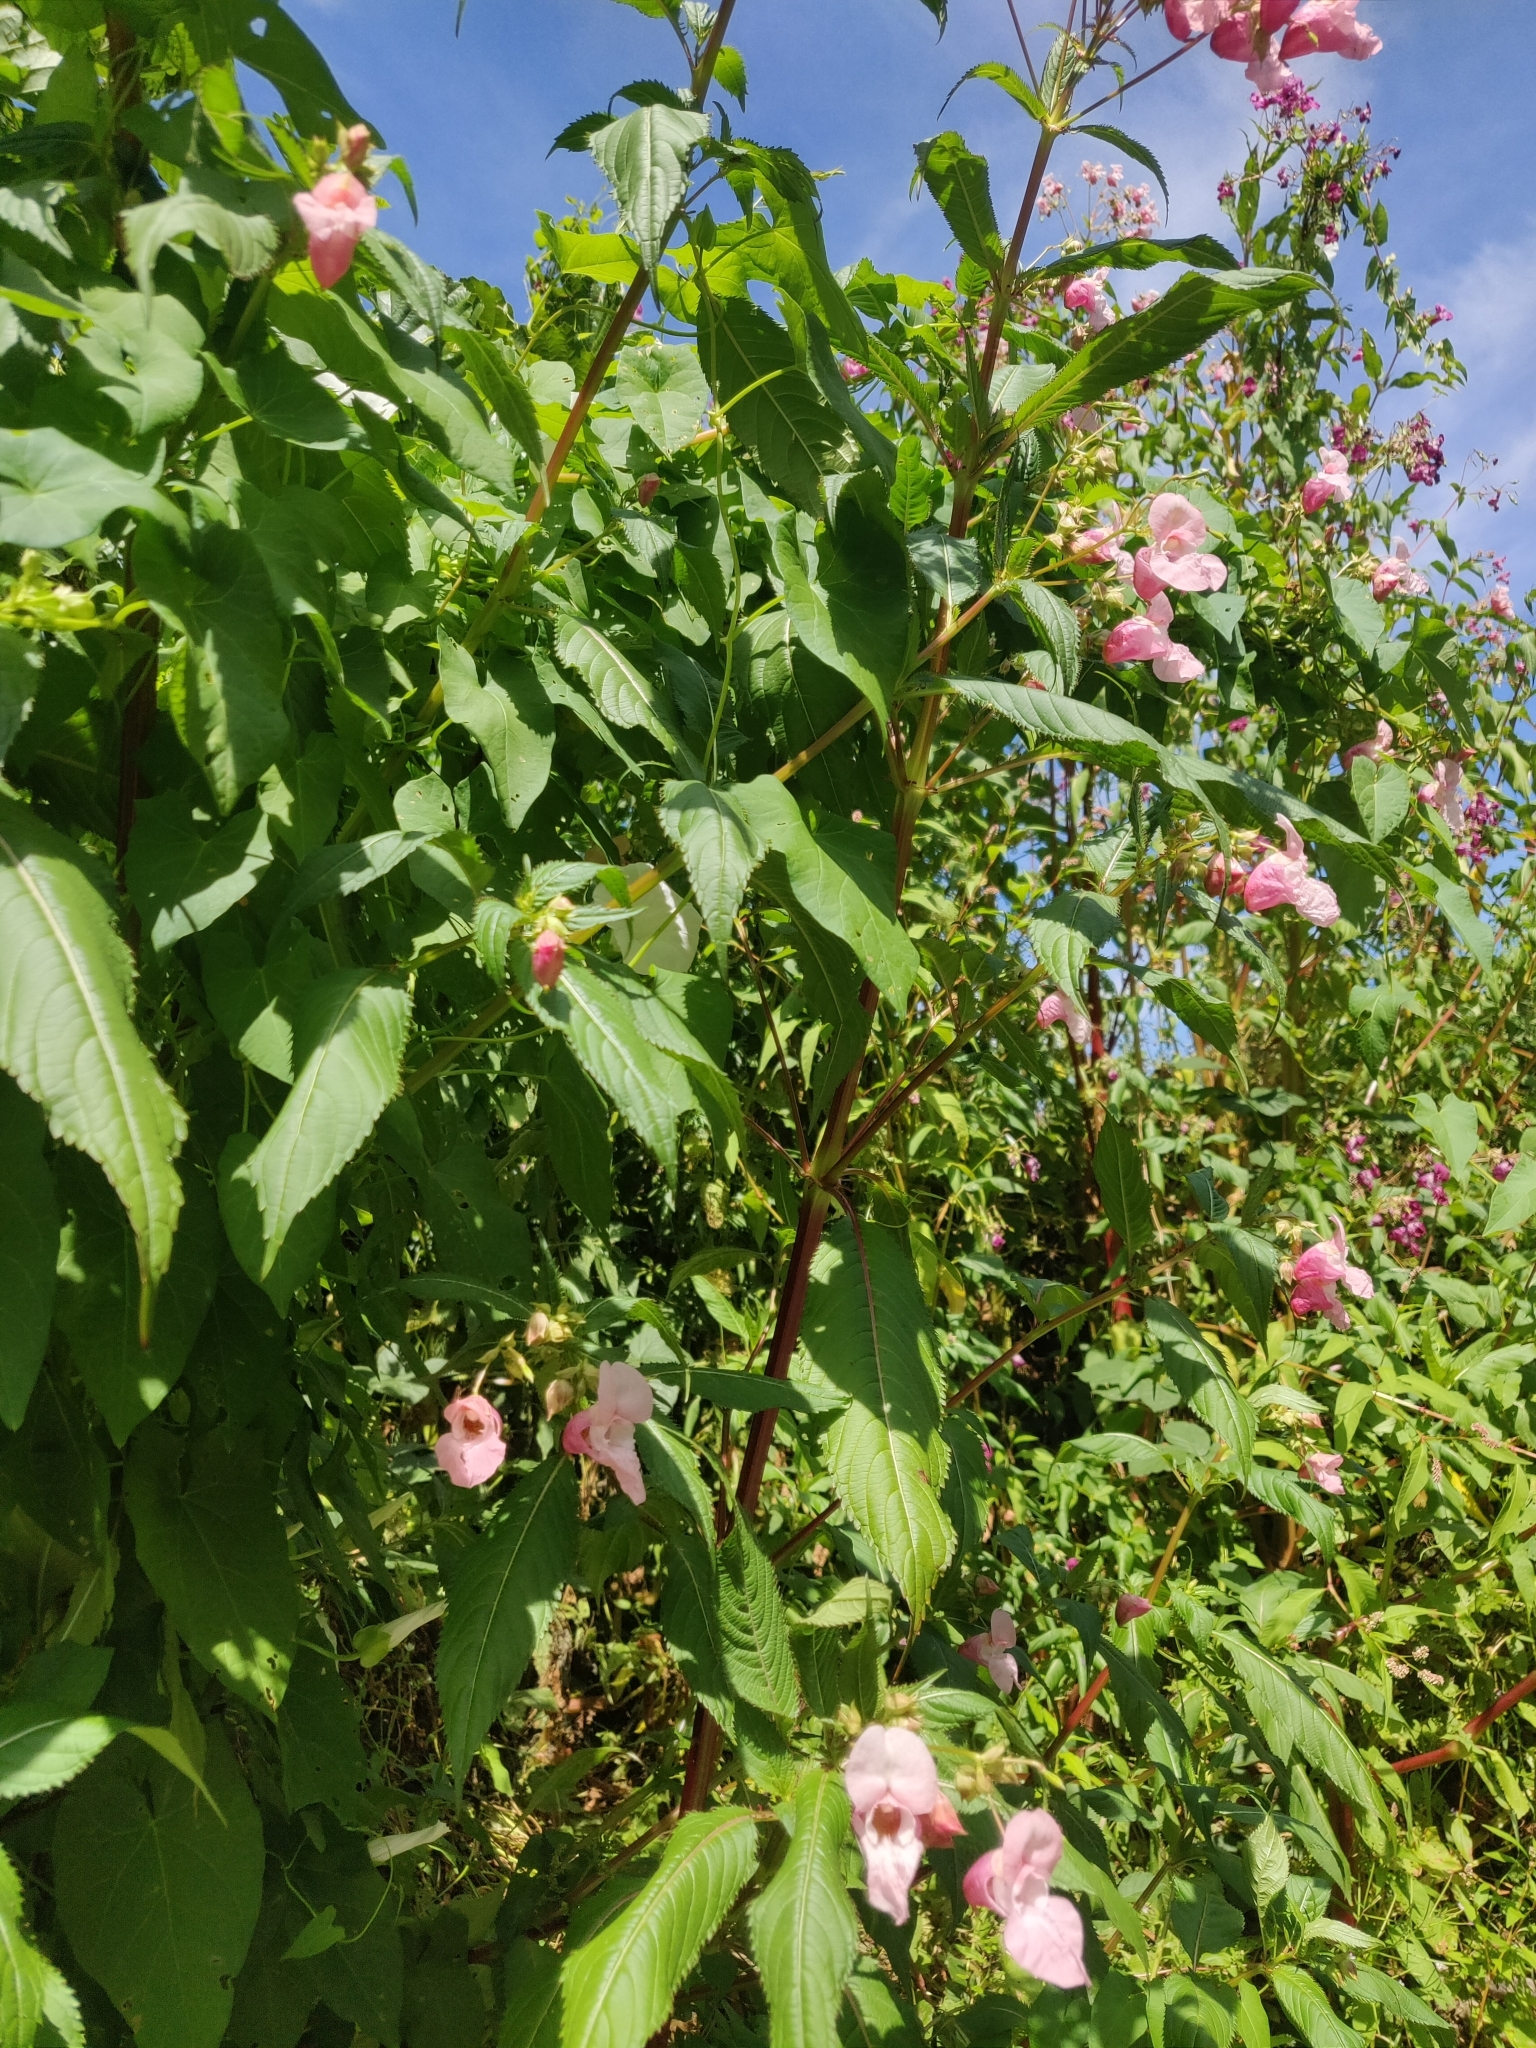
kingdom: Plantae
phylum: Tracheophyta
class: Magnoliopsida
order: Ericales
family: Balsaminaceae
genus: Impatiens
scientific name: Impatiens glandulifera
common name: Himalayan balsam
